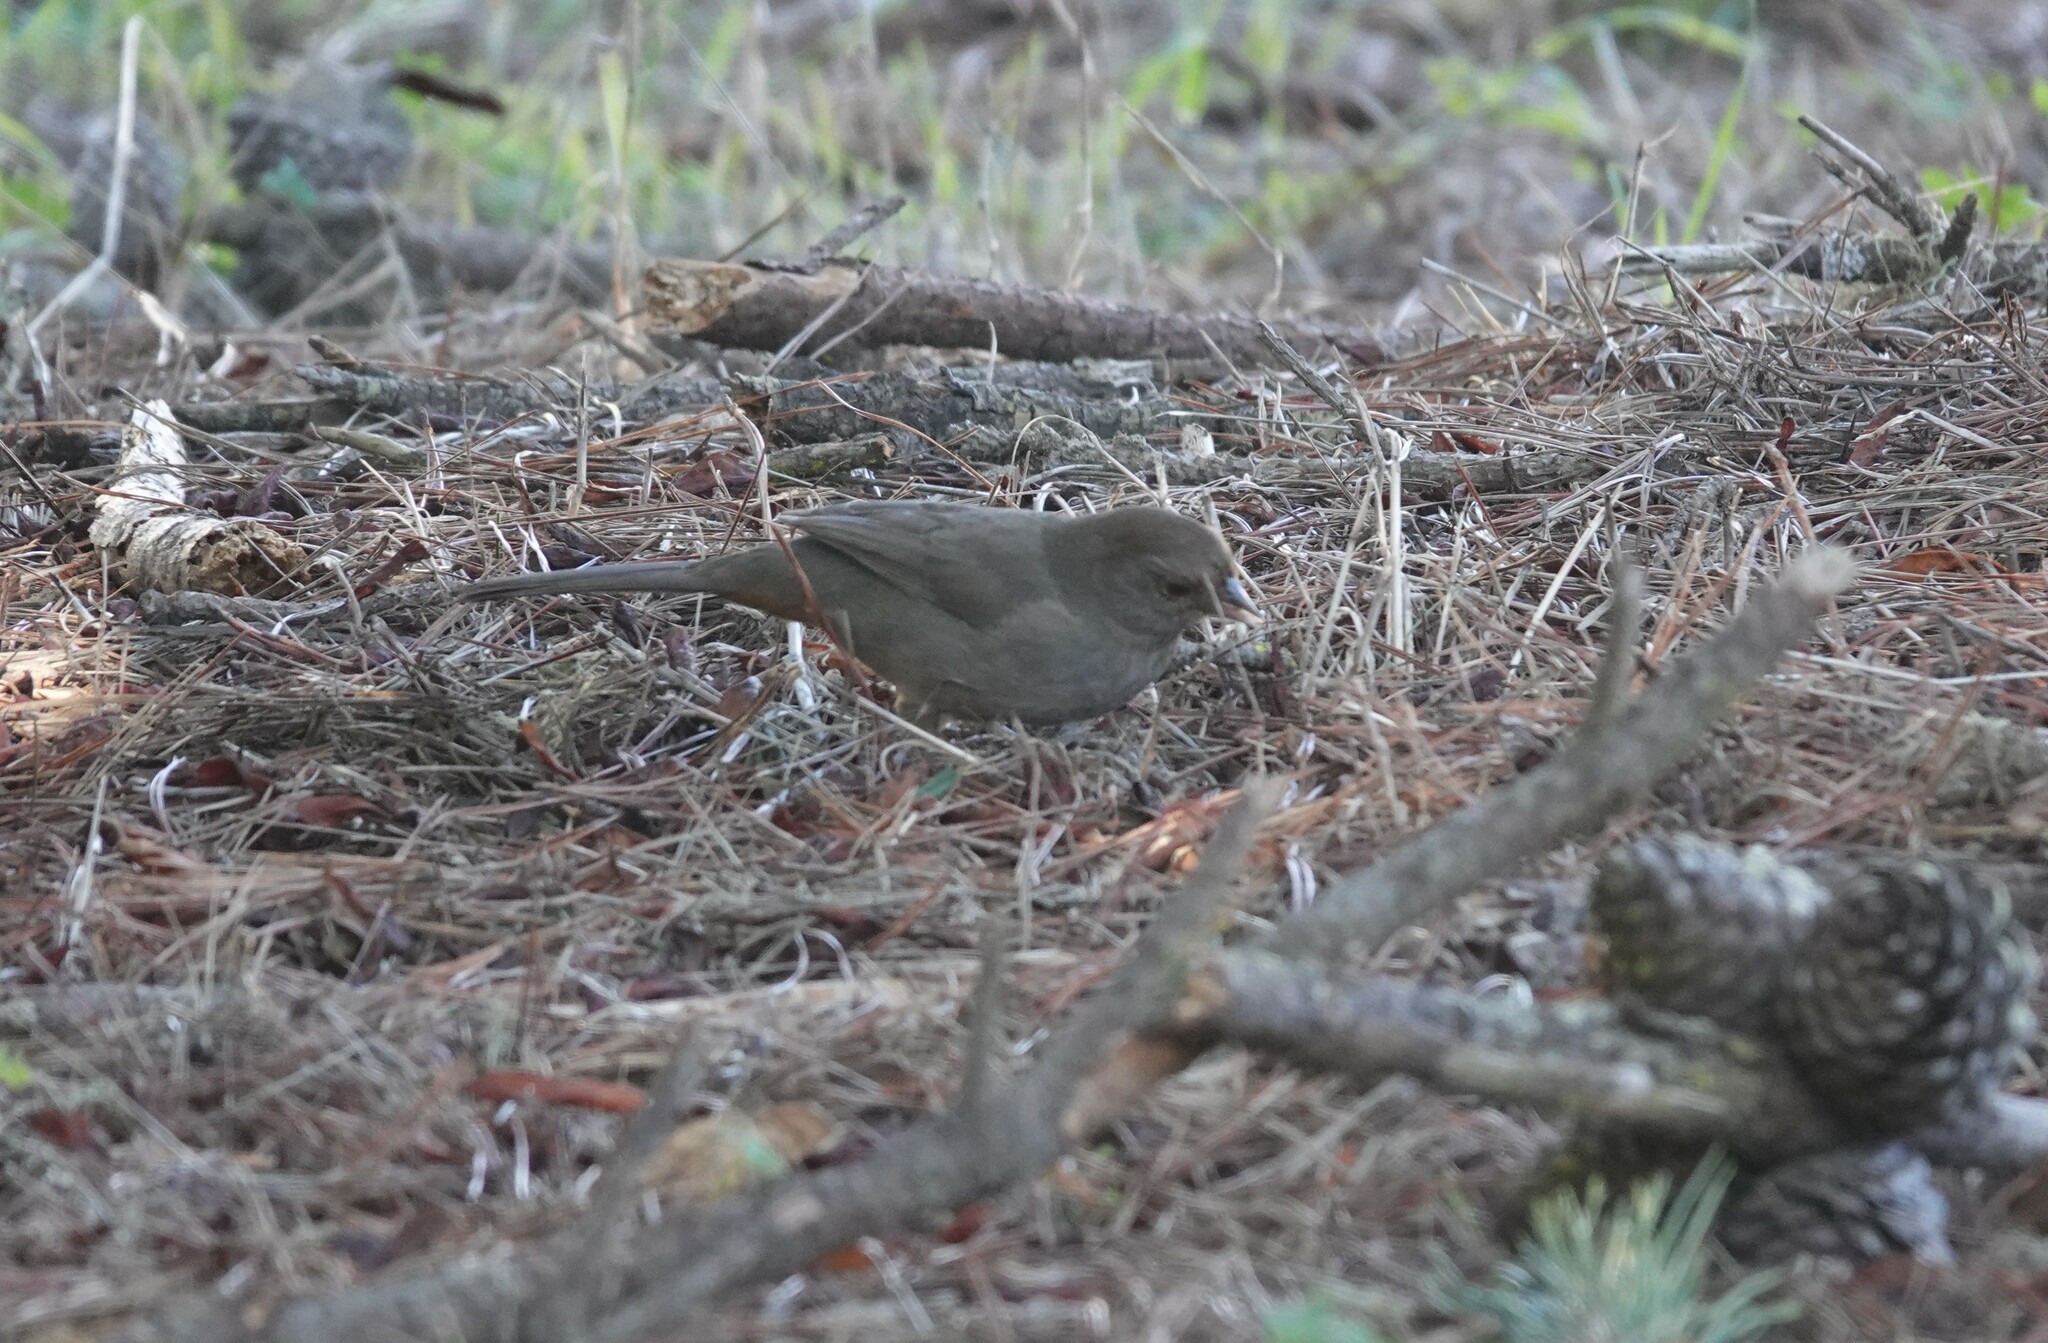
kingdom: Animalia
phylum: Chordata
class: Aves
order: Passeriformes
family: Passerellidae
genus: Melozone
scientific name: Melozone crissalis
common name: California towhee
